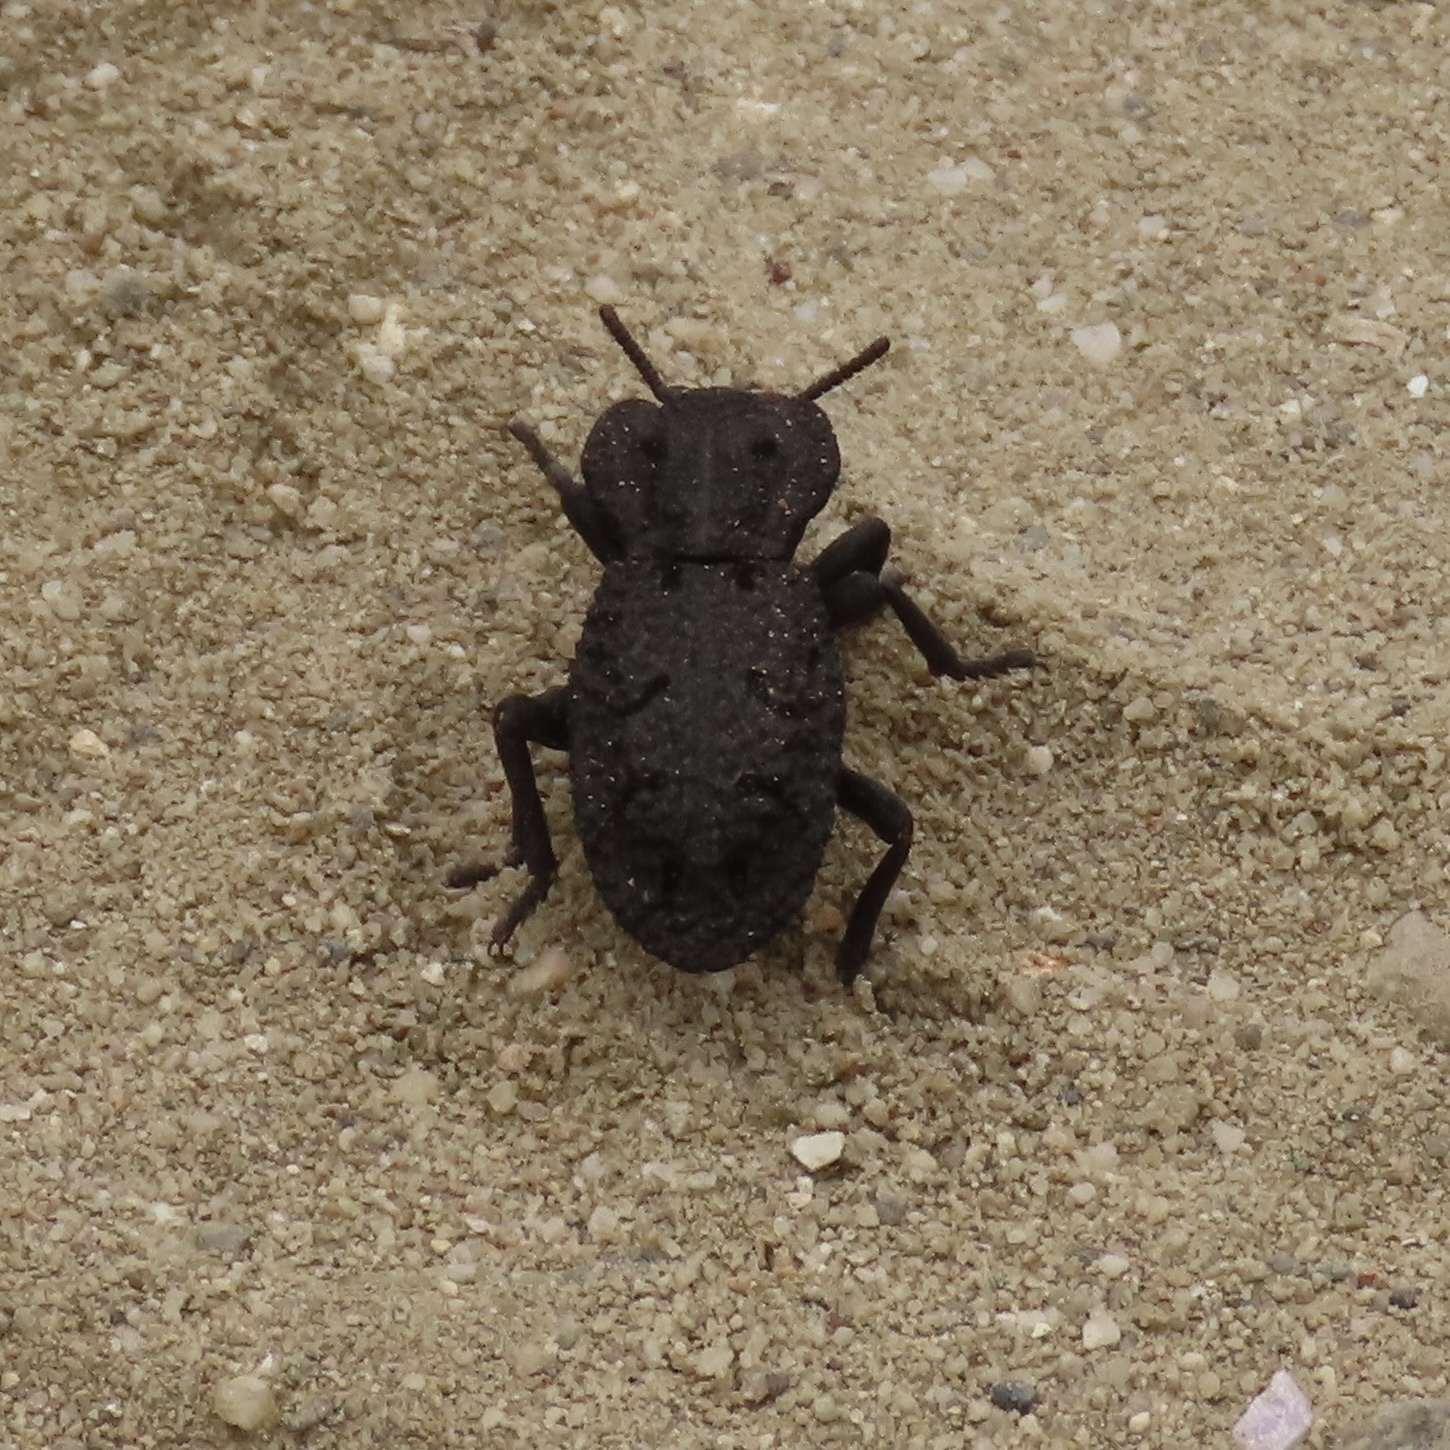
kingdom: Animalia
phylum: Arthropoda
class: Insecta
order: Coleoptera
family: Zopheridae
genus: Phloeodes
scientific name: Phloeodes diabolicus
